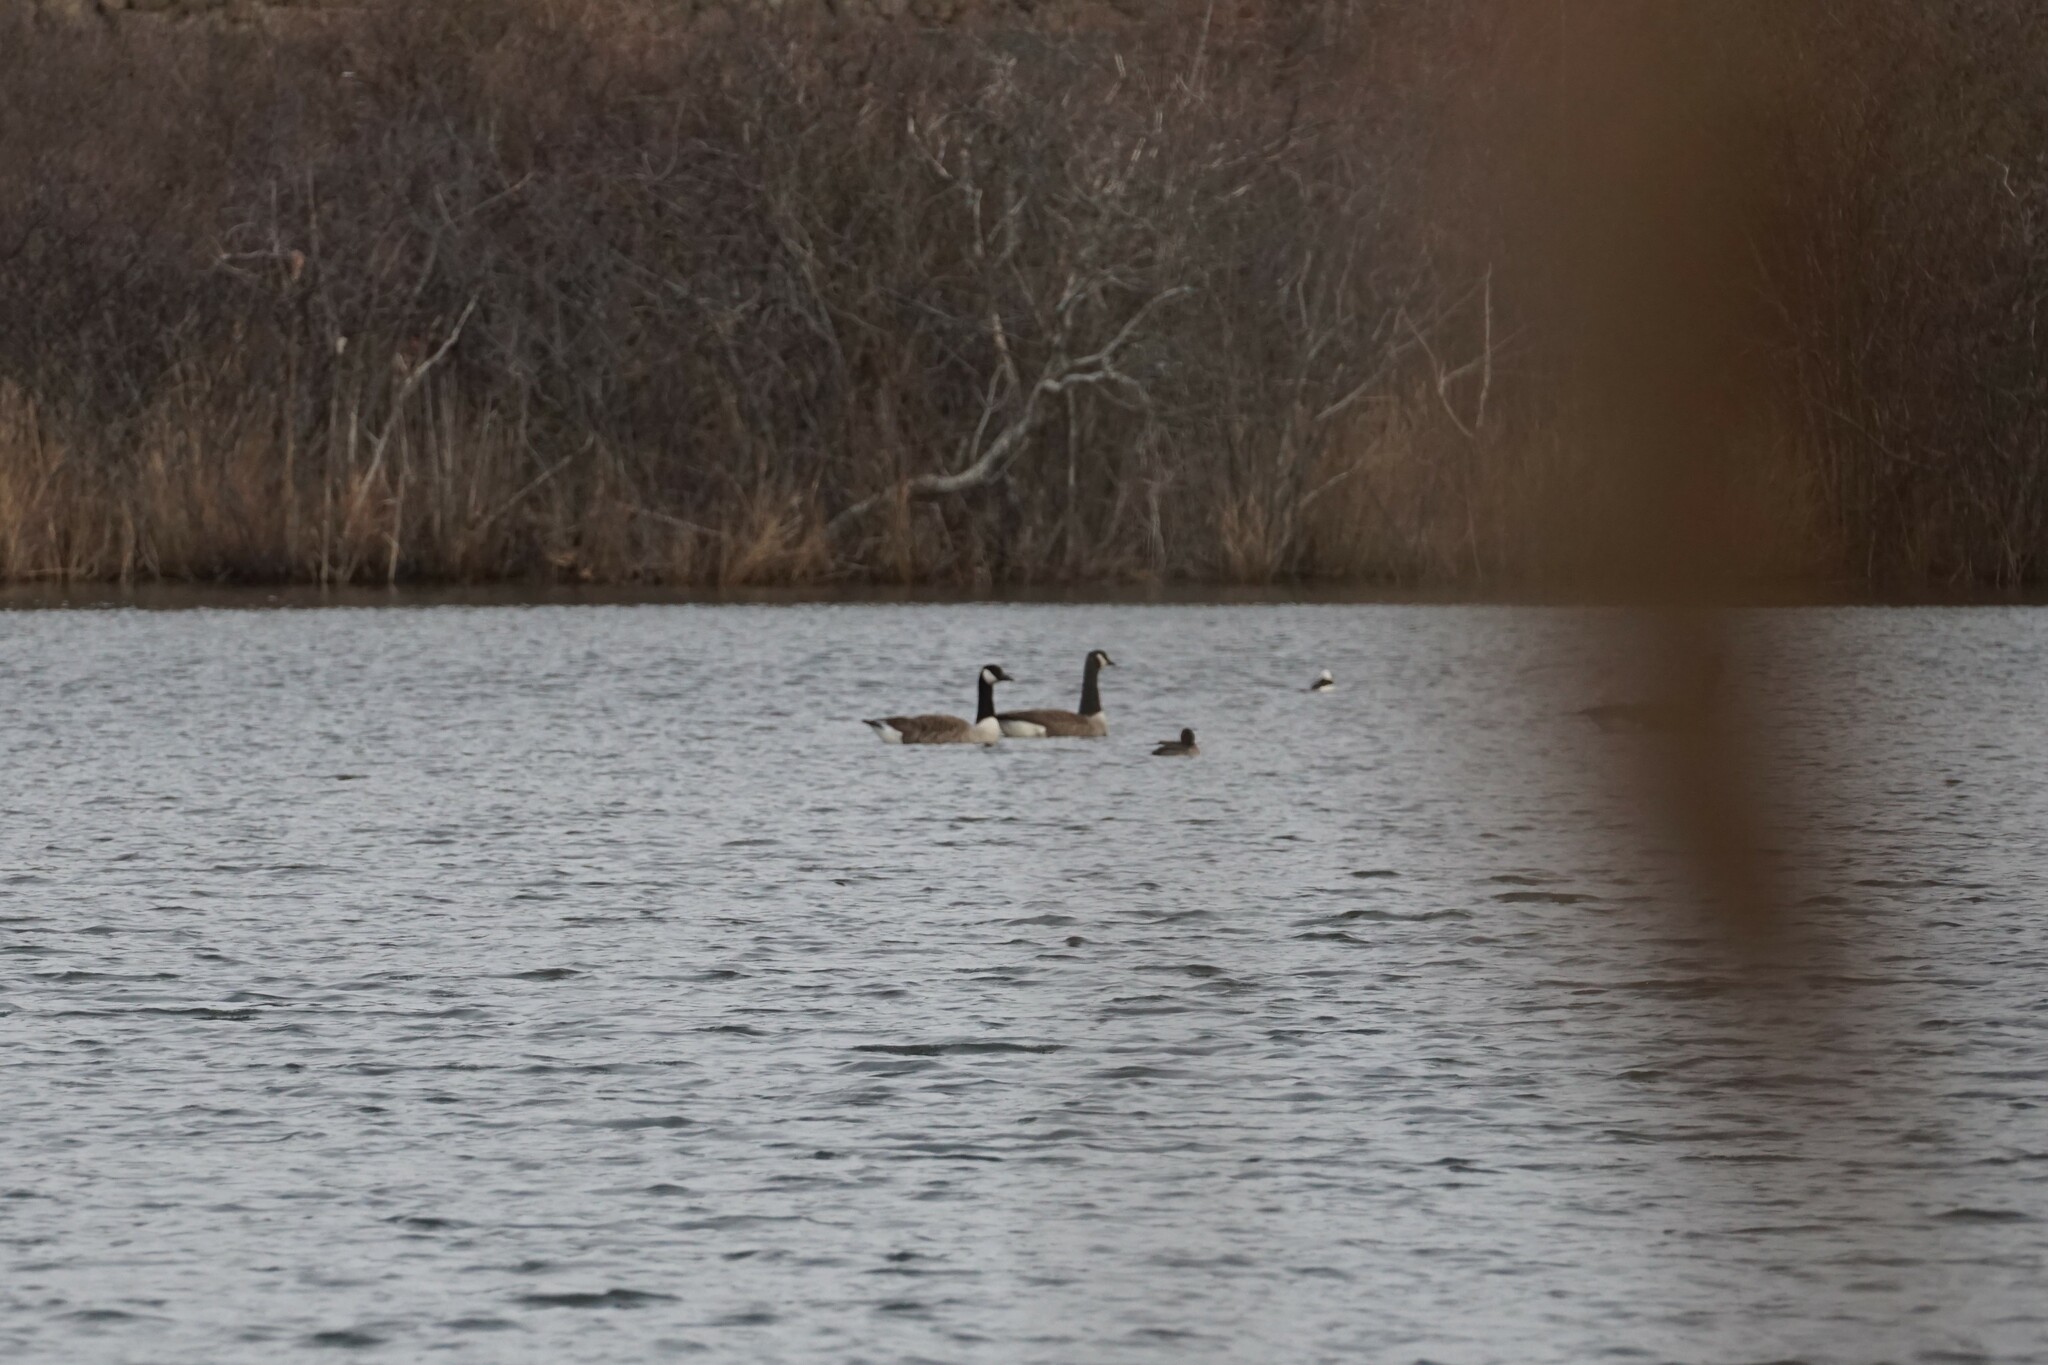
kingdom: Animalia
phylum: Chordata
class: Aves
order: Anseriformes
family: Anatidae
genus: Branta
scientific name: Branta canadensis
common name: Canada goose
